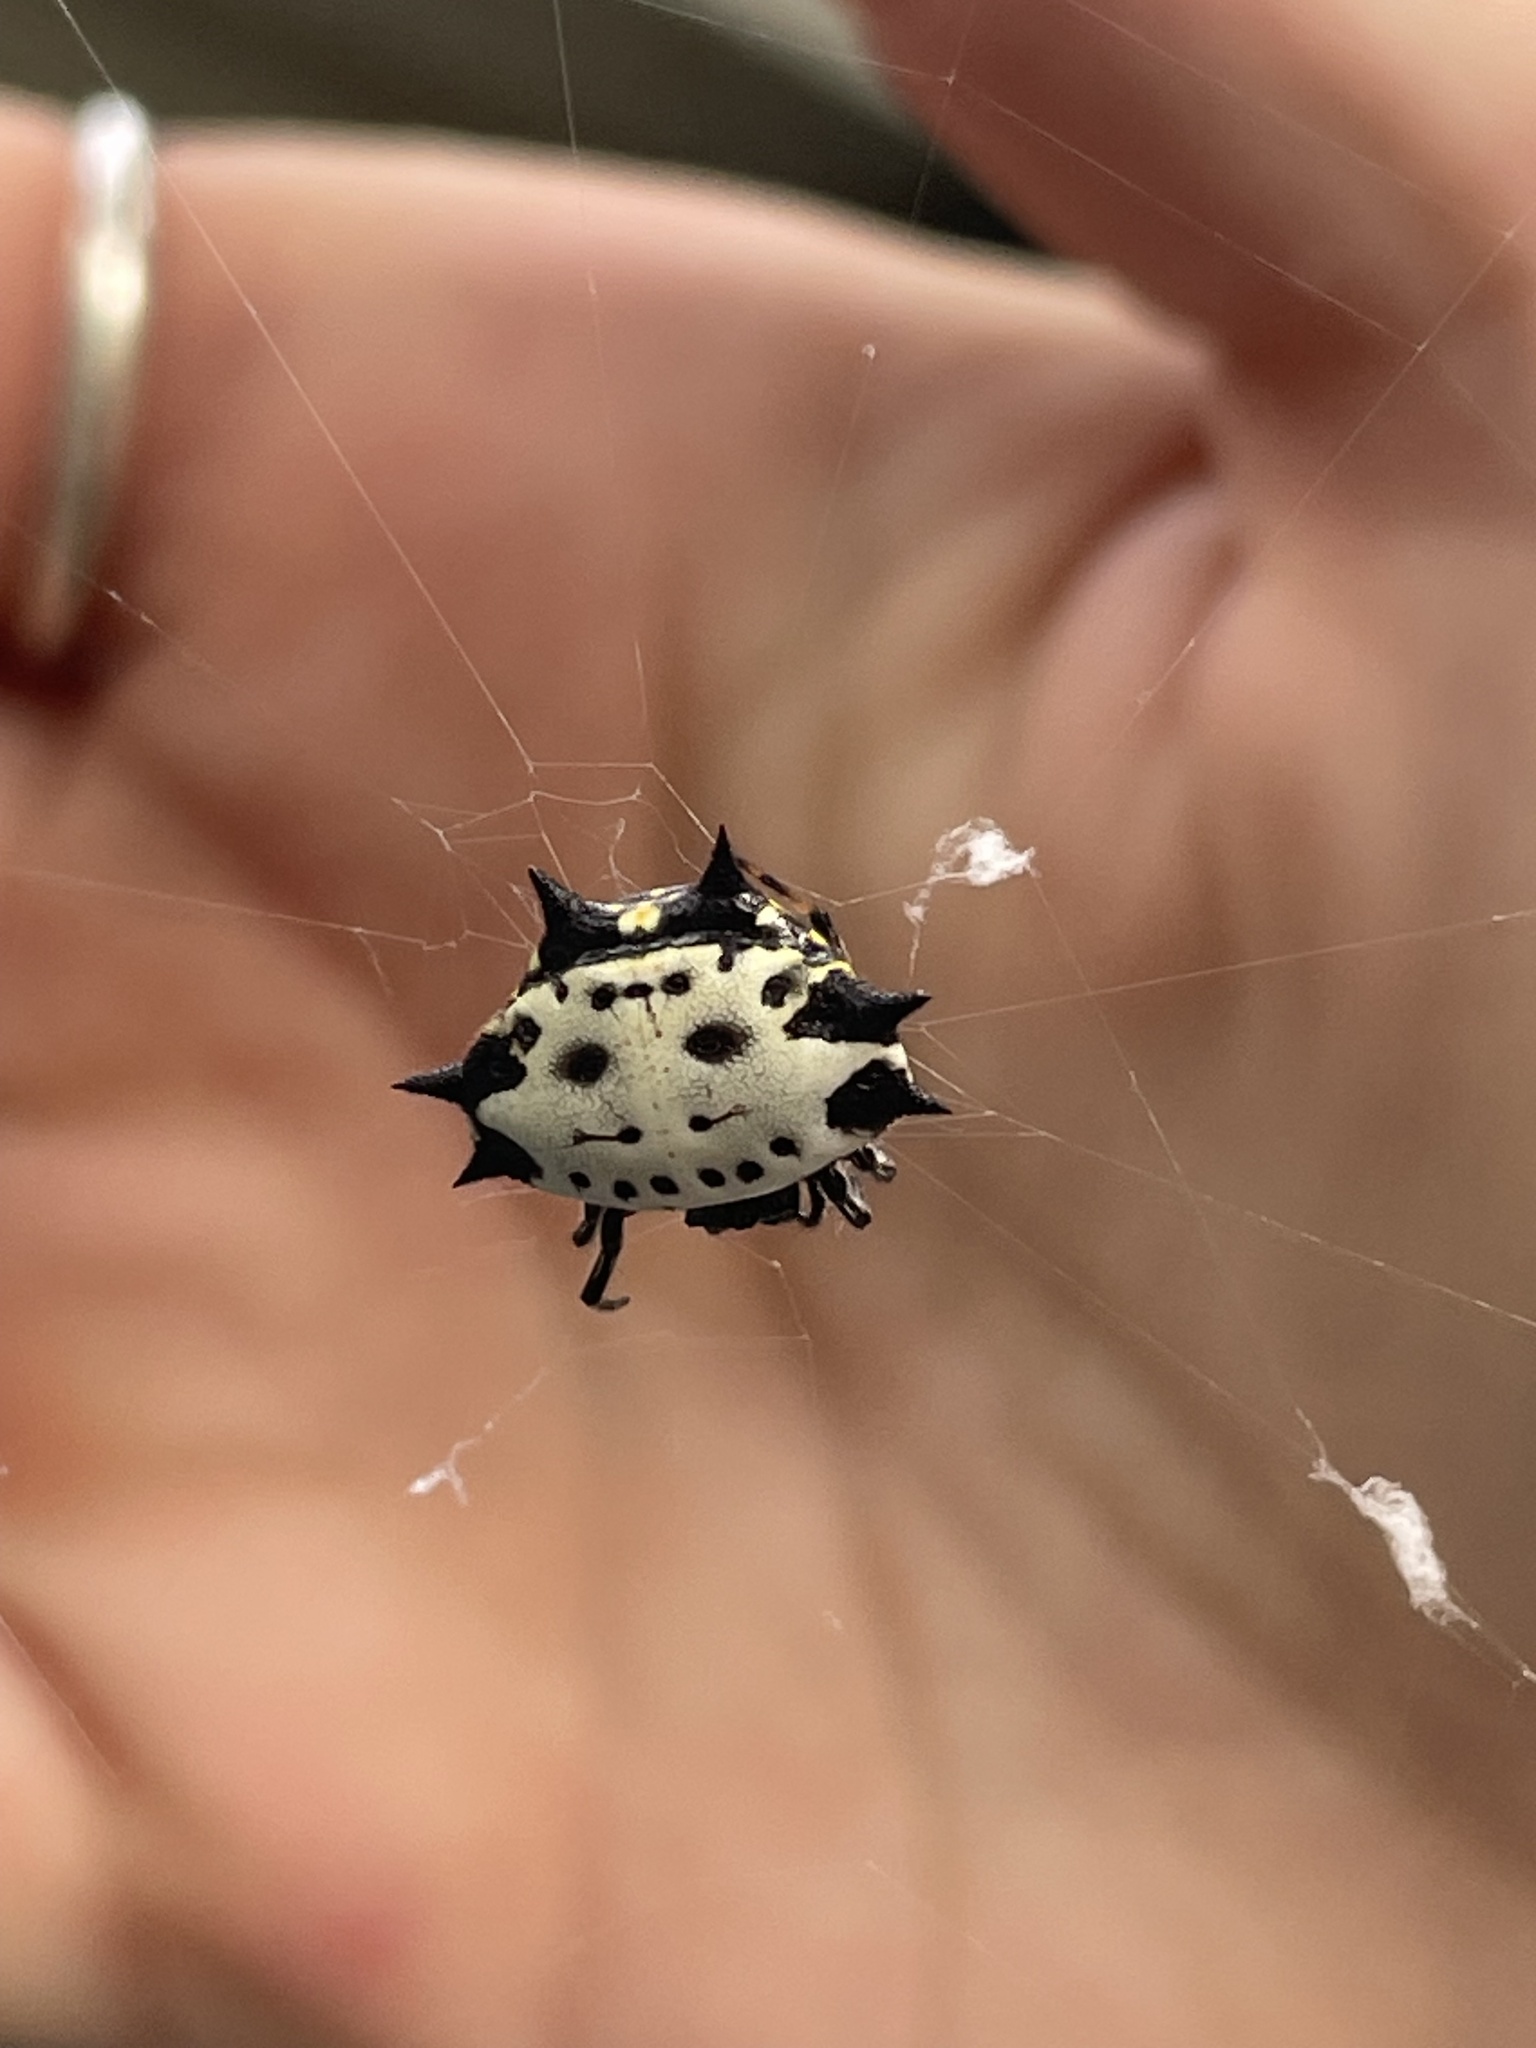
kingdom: Animalia
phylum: Arthropoda
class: Arachnida
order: Araneae
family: Araneidae
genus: Gasteracantha
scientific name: Gasteracantha cancriformis
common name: Orb weavers
